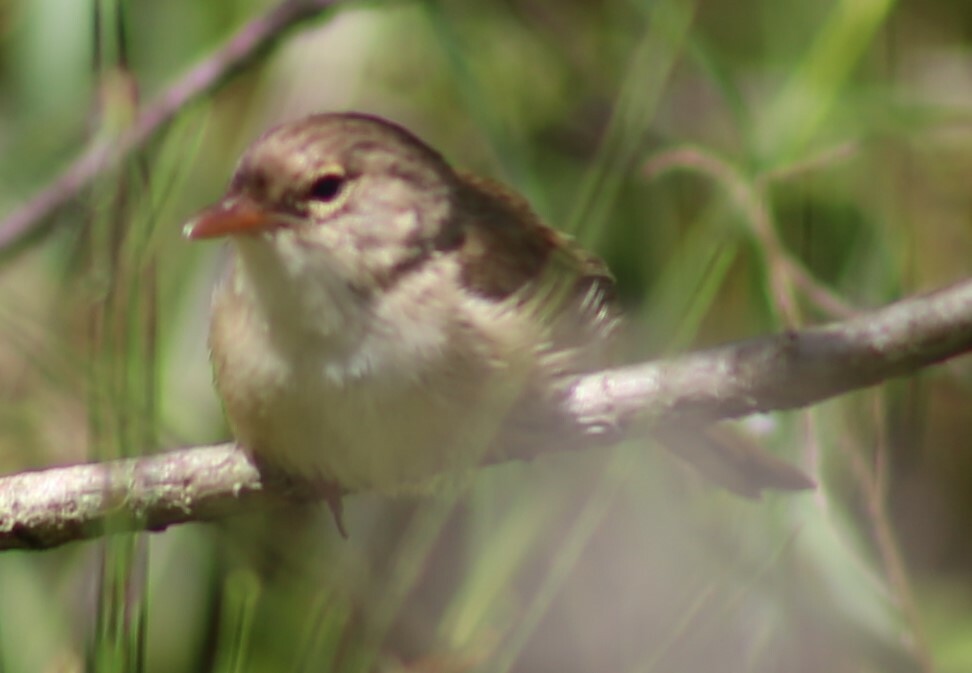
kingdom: Animalia
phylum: Chordata
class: Aves
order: Passeriformes
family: Maluridae
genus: Malurus
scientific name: Malurus melanocephalus
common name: Red-backed fairywren
